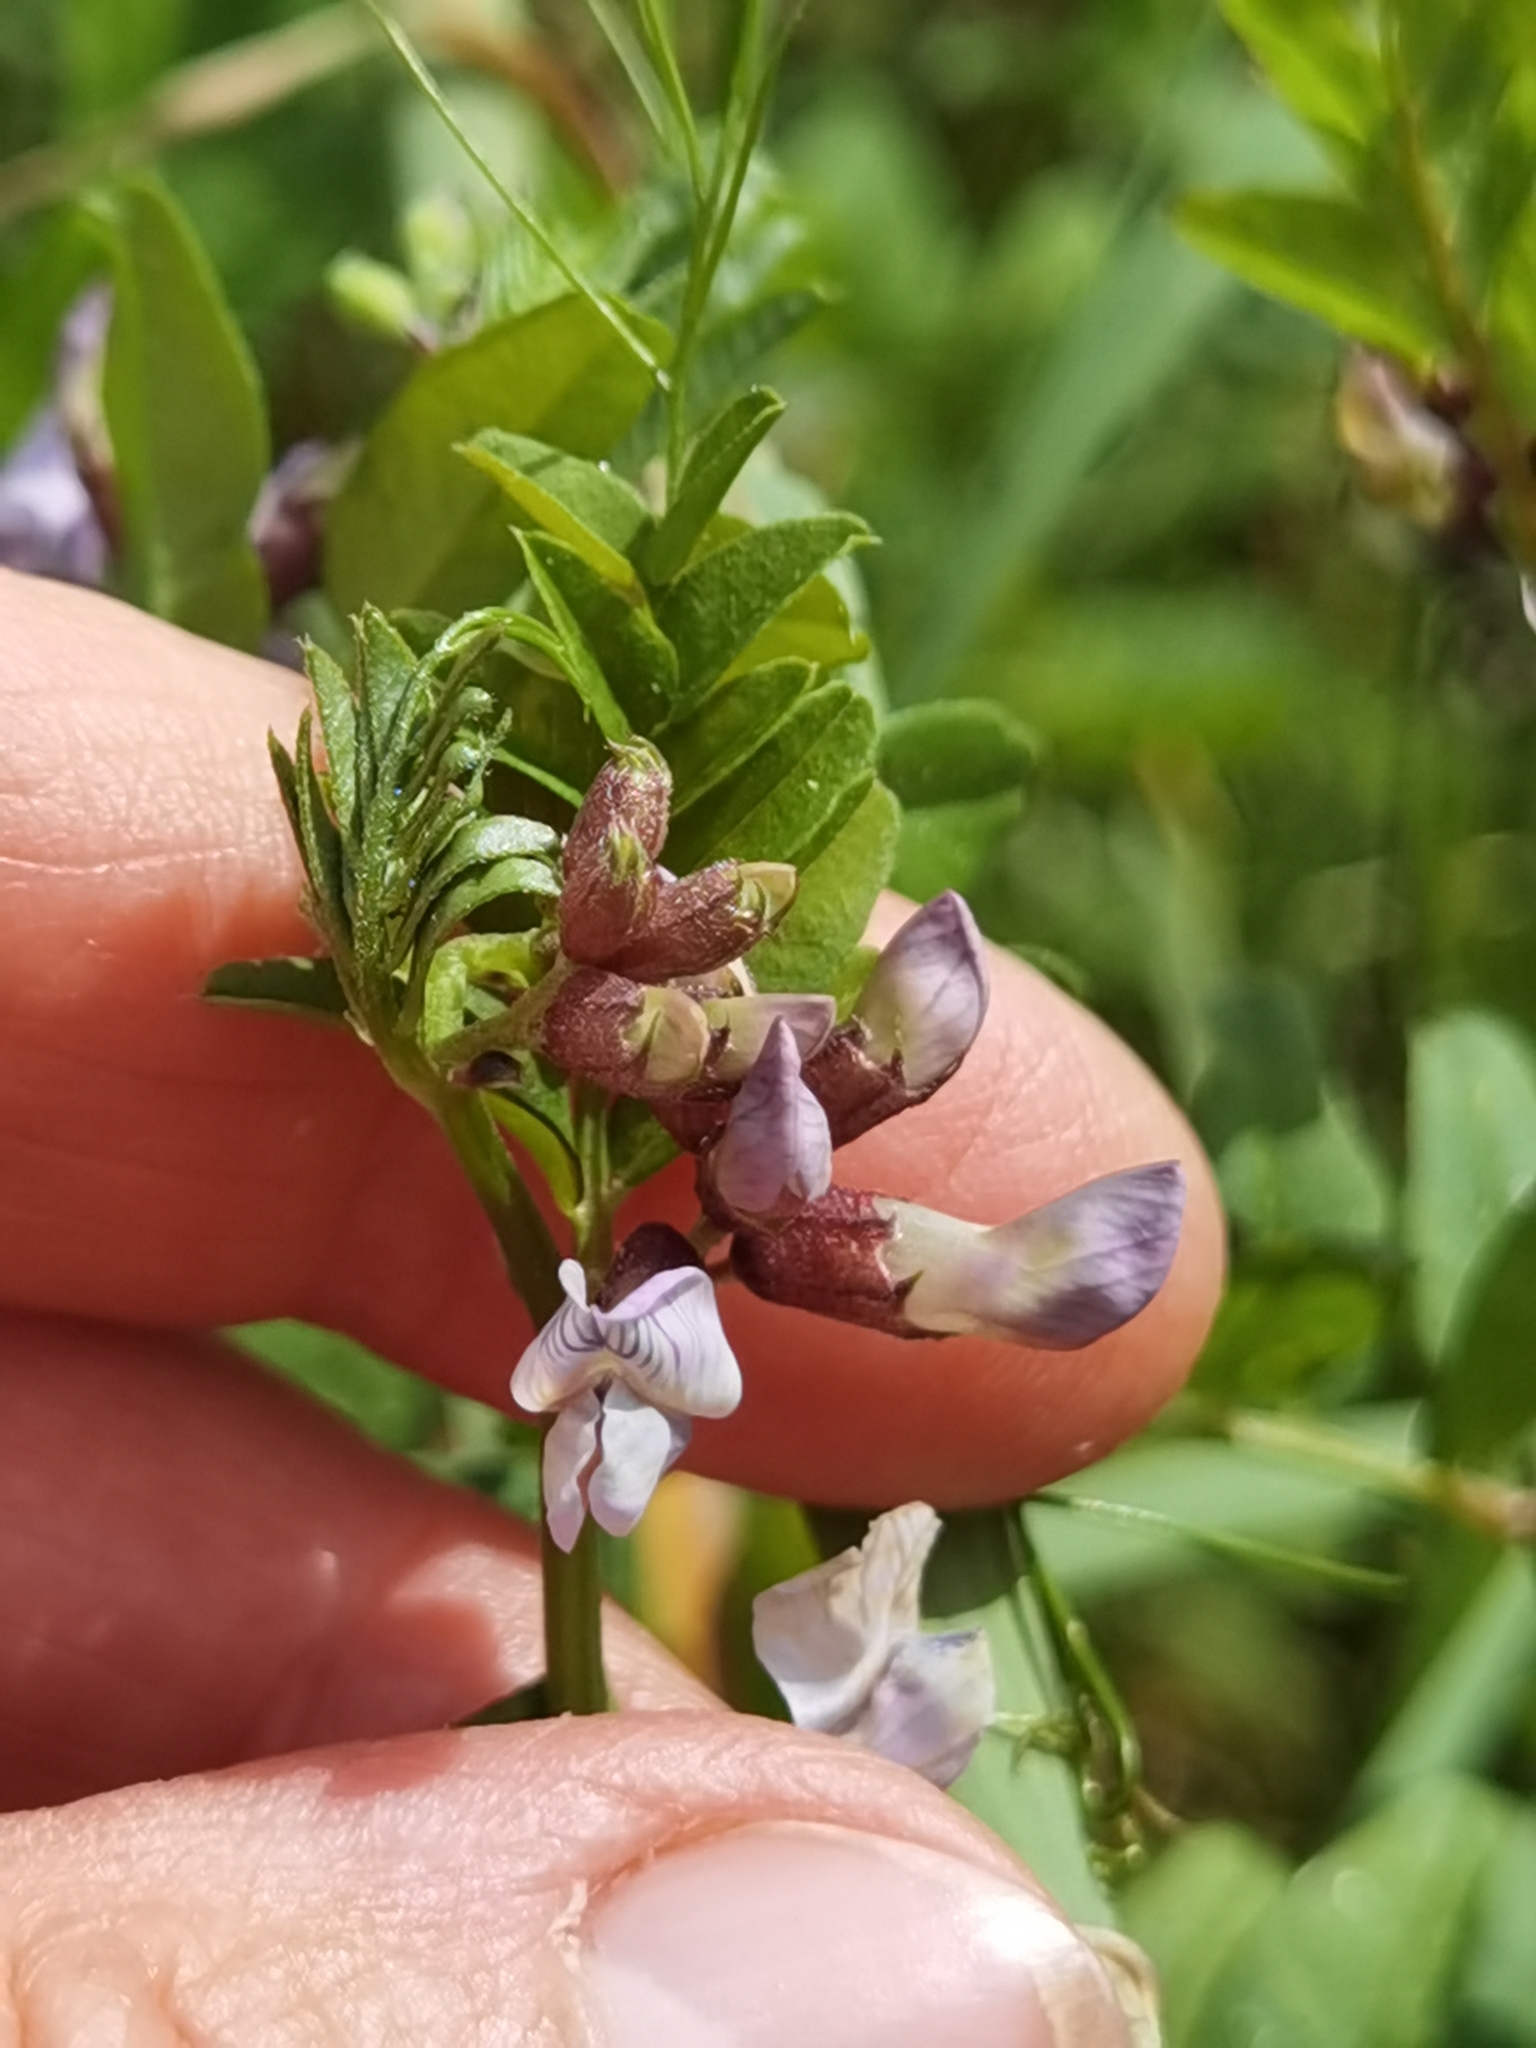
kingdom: Plantae
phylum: Tracheophyta
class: Magnoliopsida
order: Fabales
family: Fabaceae
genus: Vicia
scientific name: Vicia sepium
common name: Bush vetch
